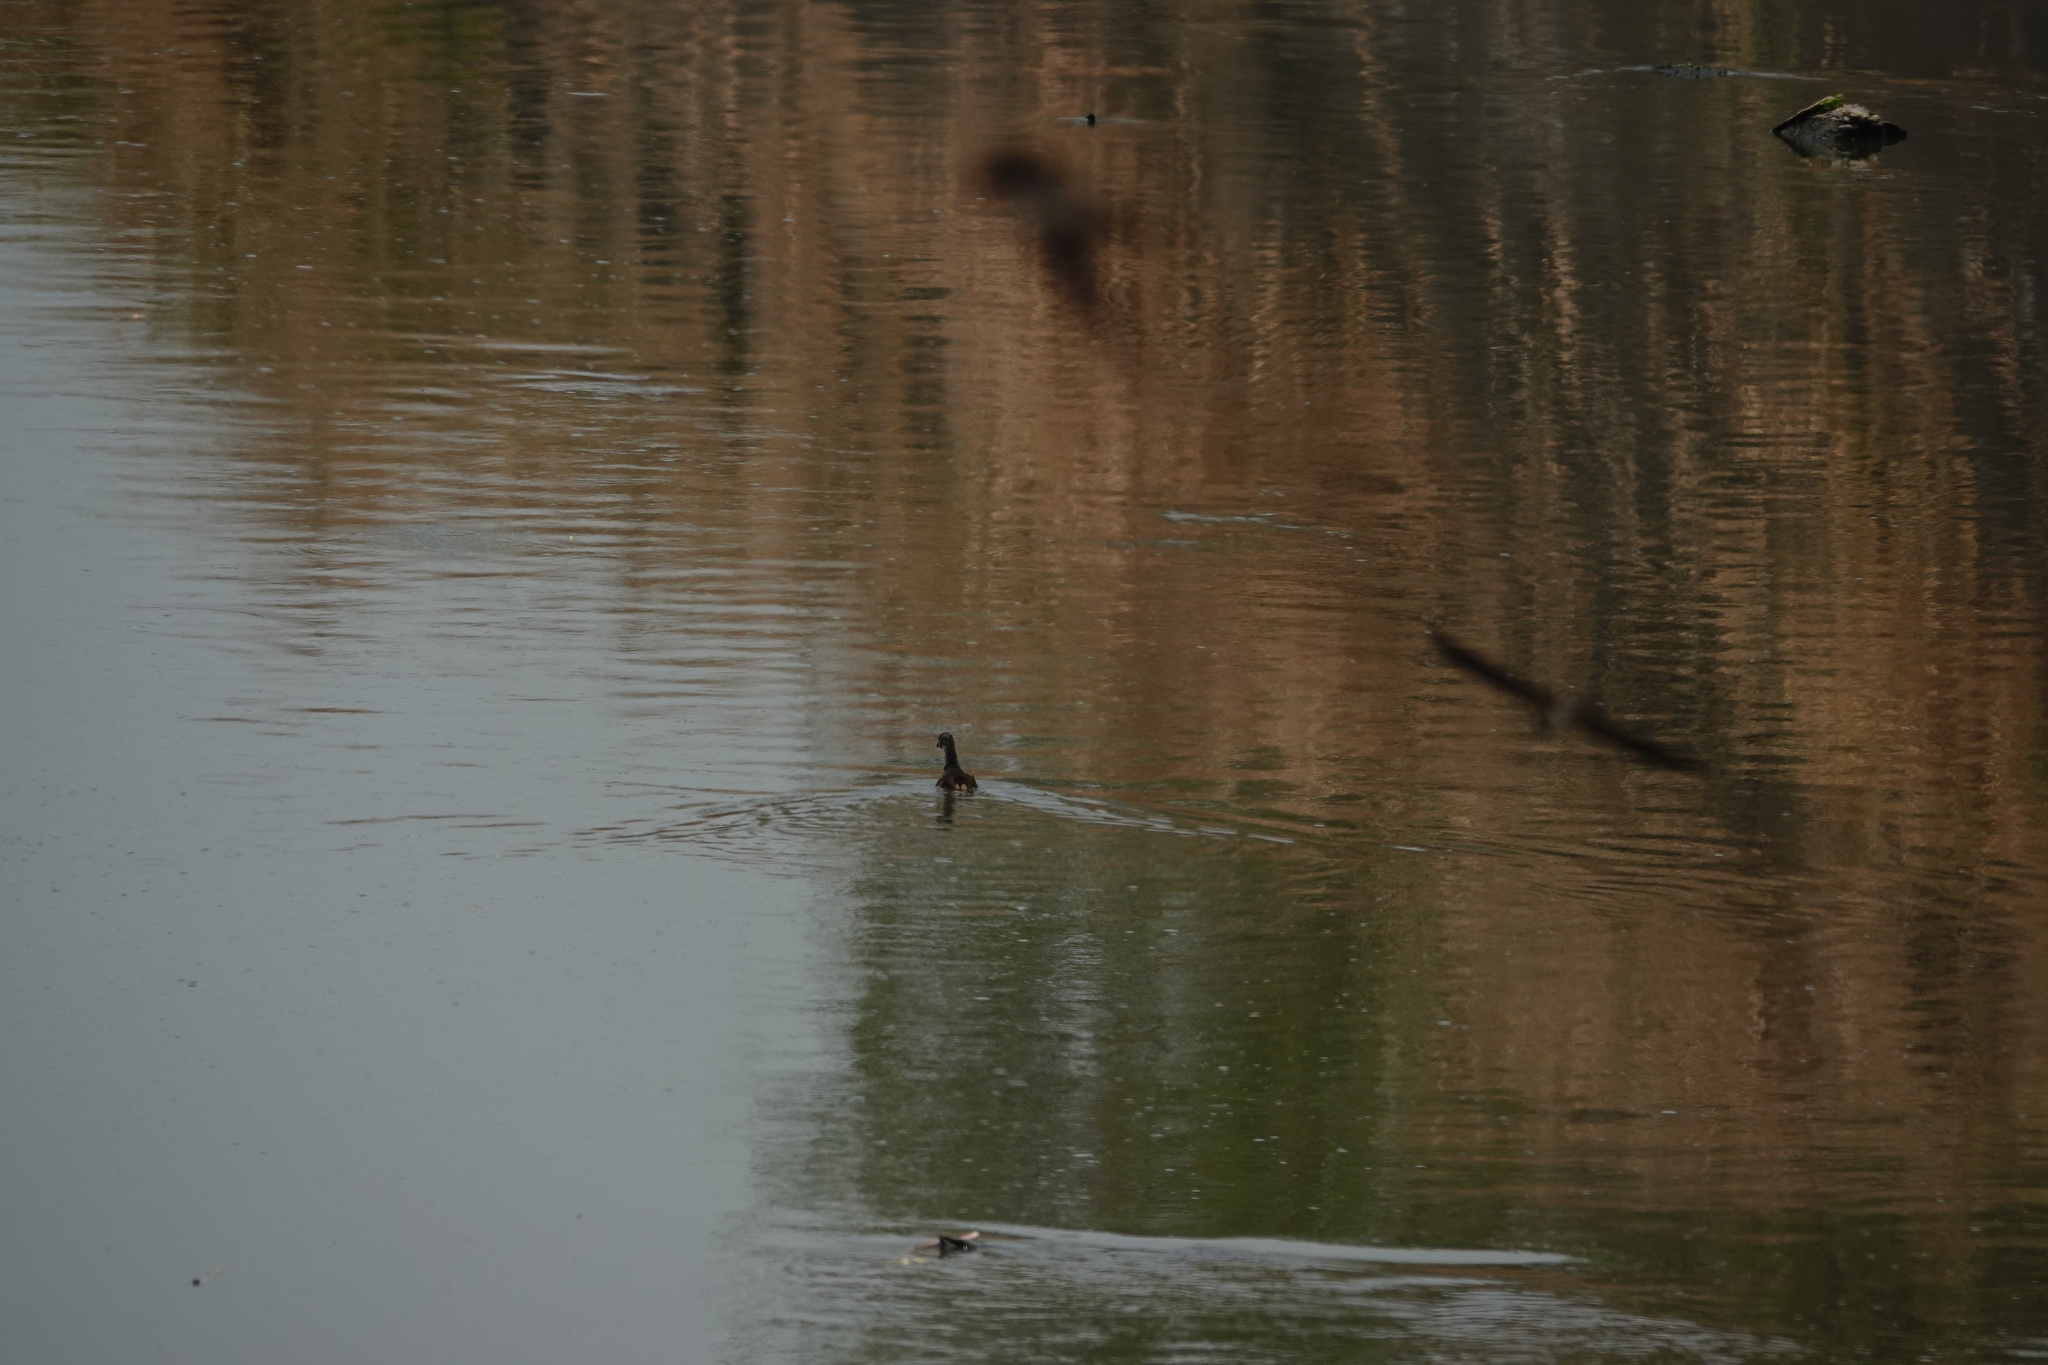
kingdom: Animalia
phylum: Chordata
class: Aves
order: Gruiformes
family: Rallidae
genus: Gallinula
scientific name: Gallinula chloropus
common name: Common moorhen
